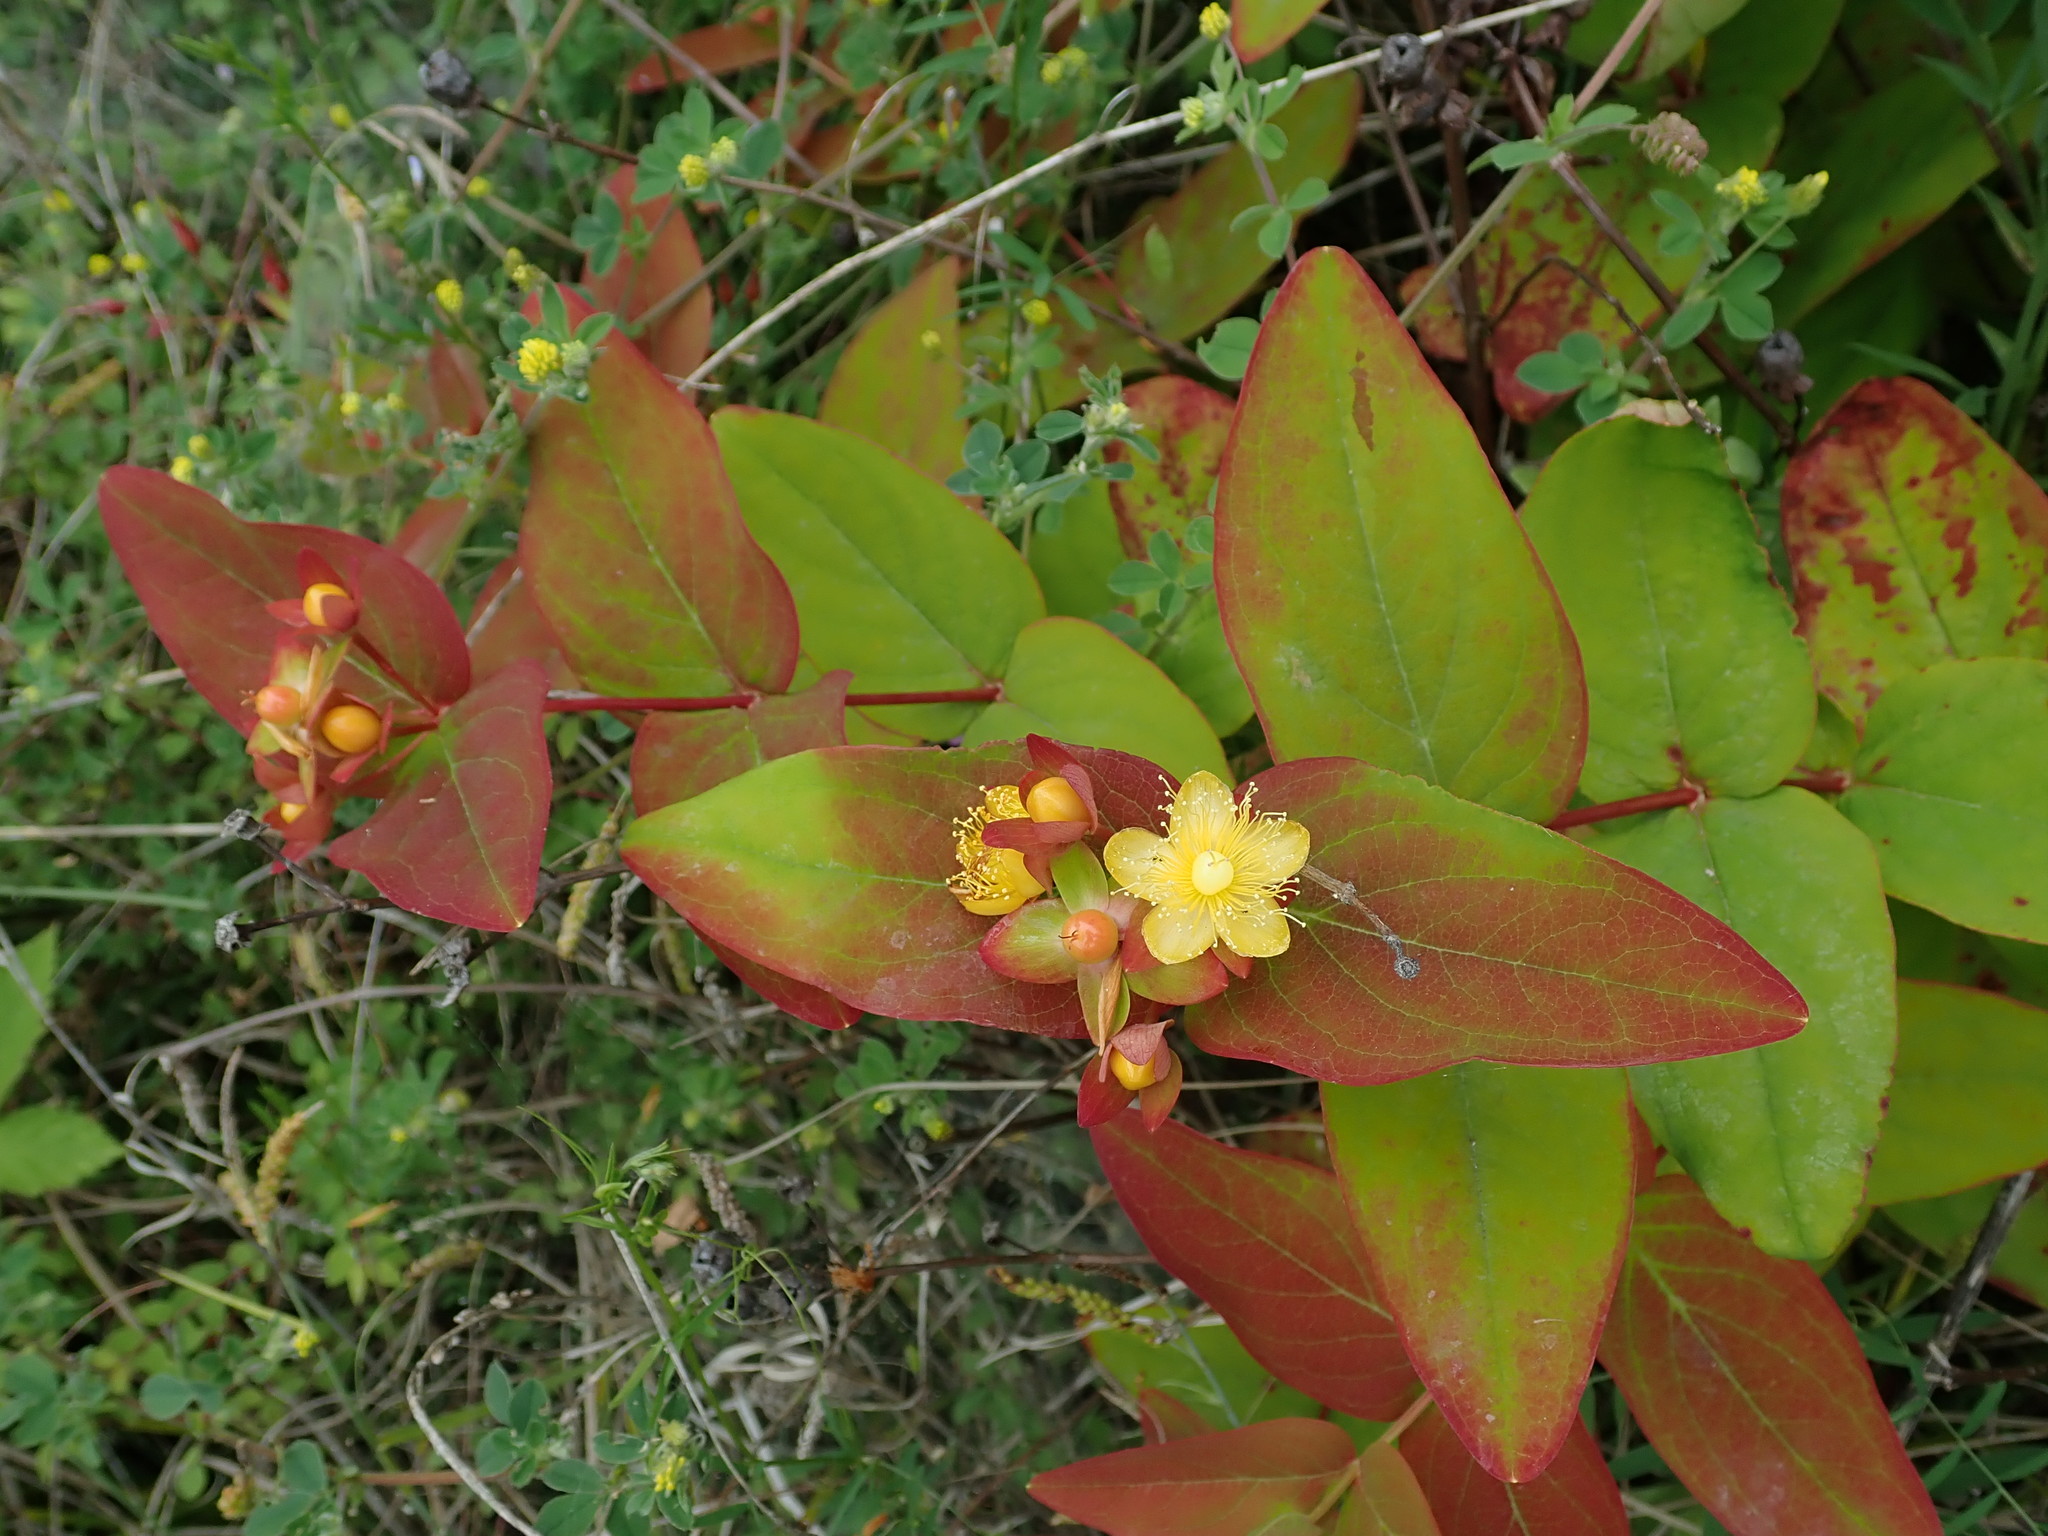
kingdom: Plantae
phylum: Tracheophyta
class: Magnoliopsida
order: Malpighiales
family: Hypericaceae
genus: Hypericum
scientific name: Hypericum androsaemum
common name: Sweet-amber
